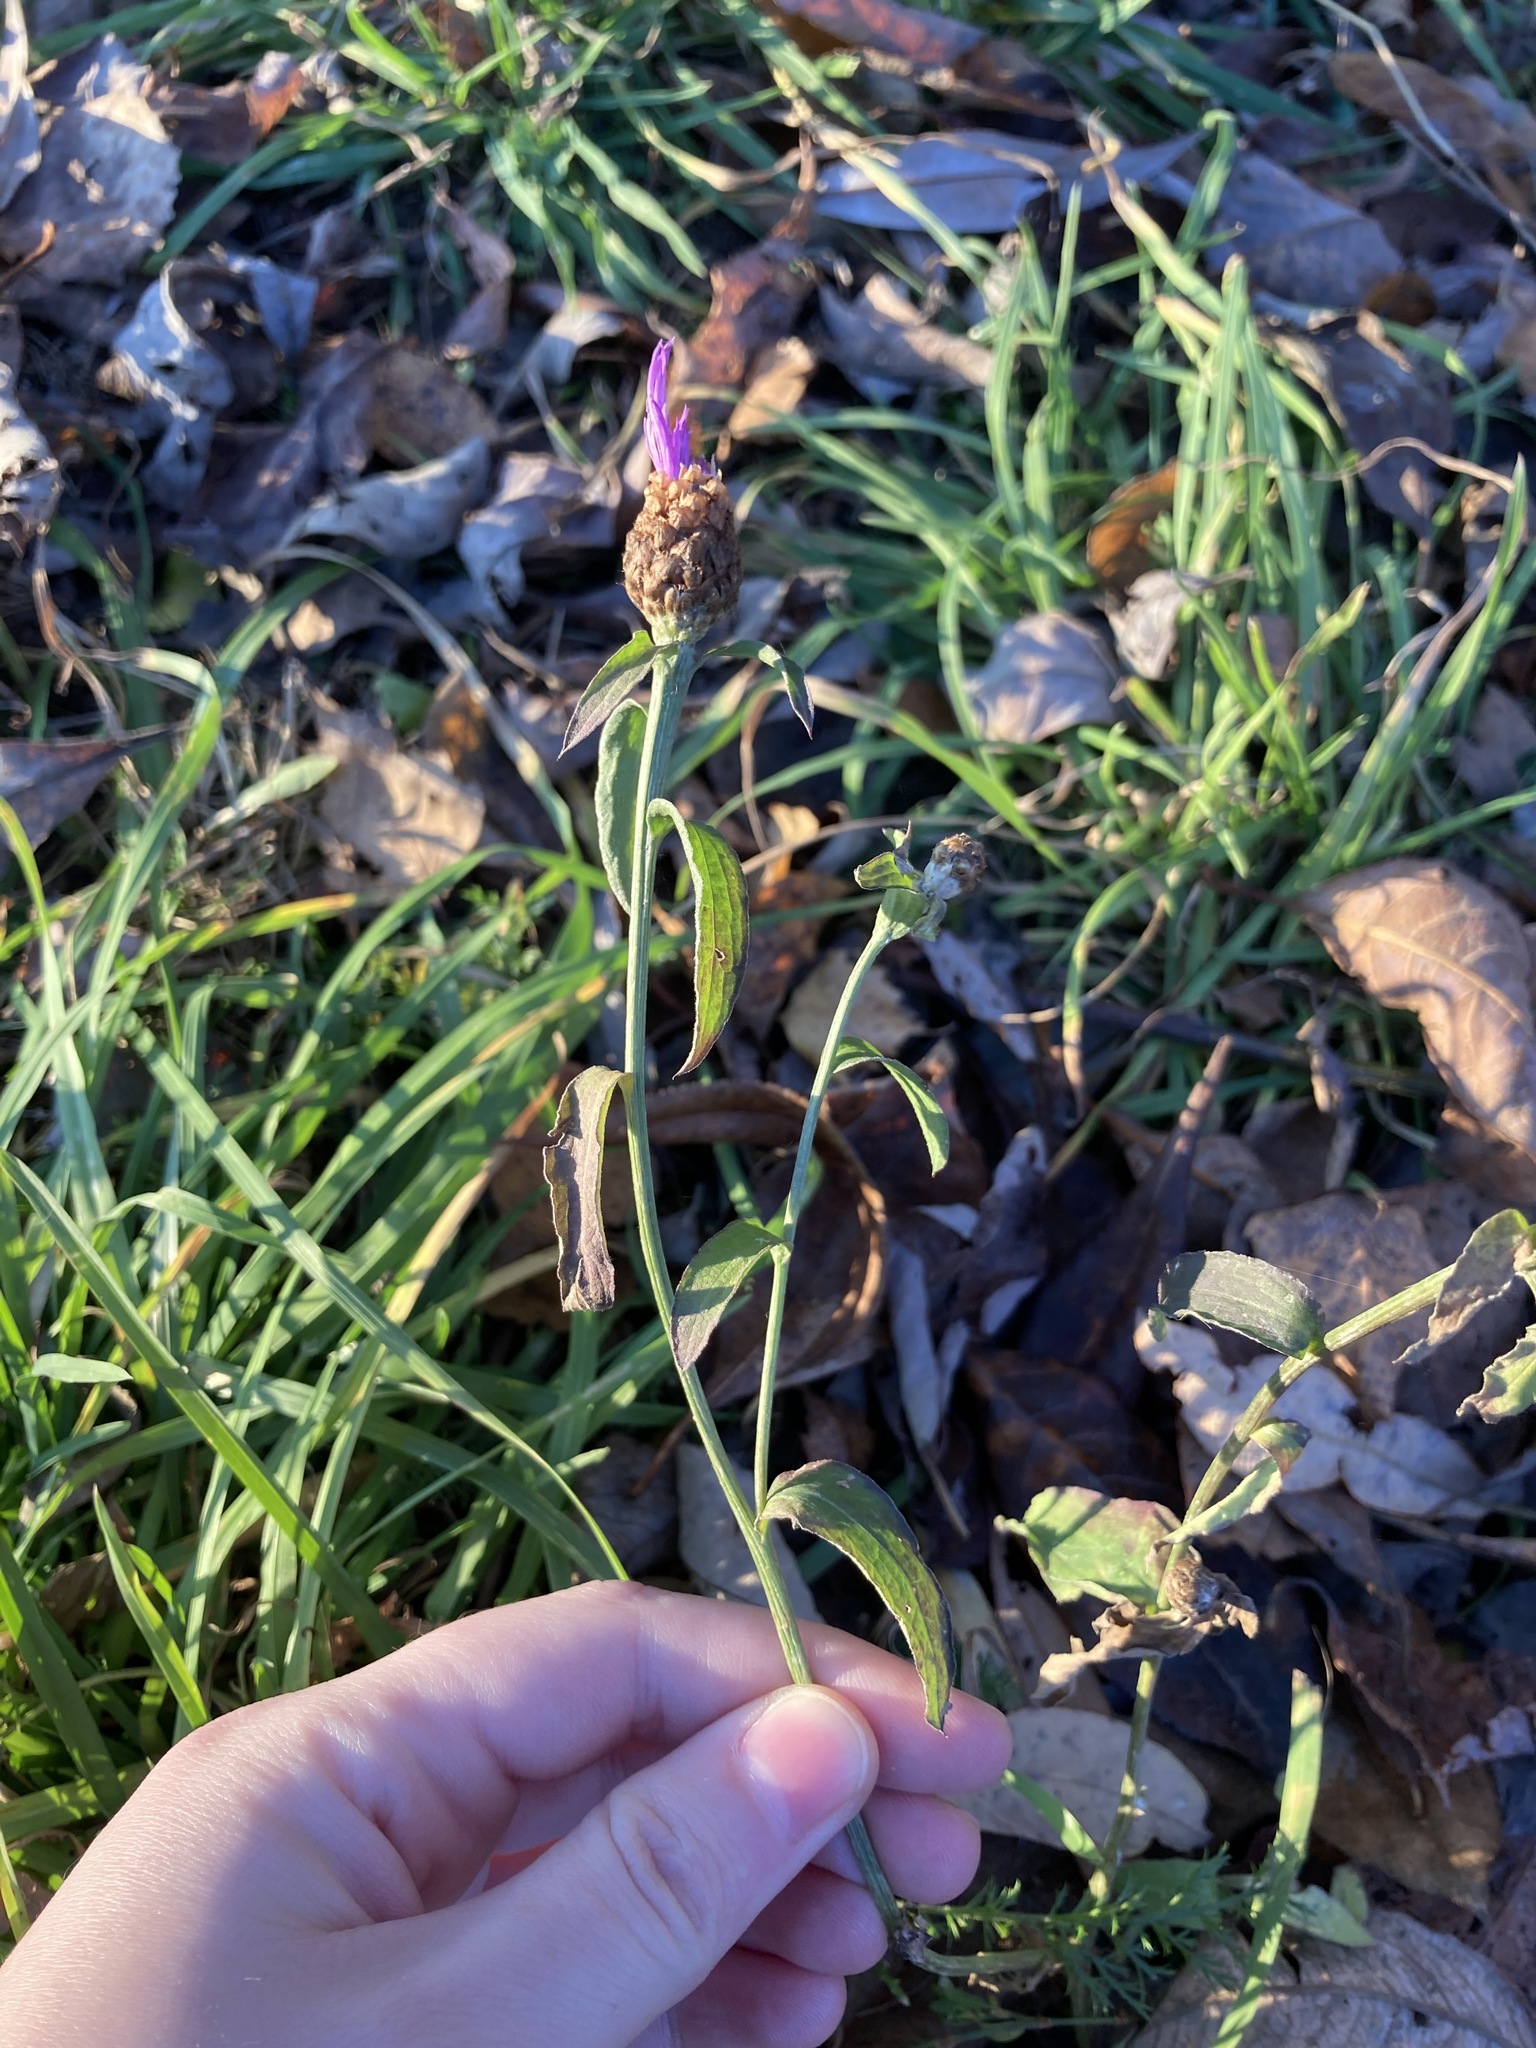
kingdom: Plantae
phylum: Tracheophyta
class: Magnoliopsida
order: Asterales
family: Asteraceae
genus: Centaurea
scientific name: Centaurea jacea
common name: Brown knapweed
